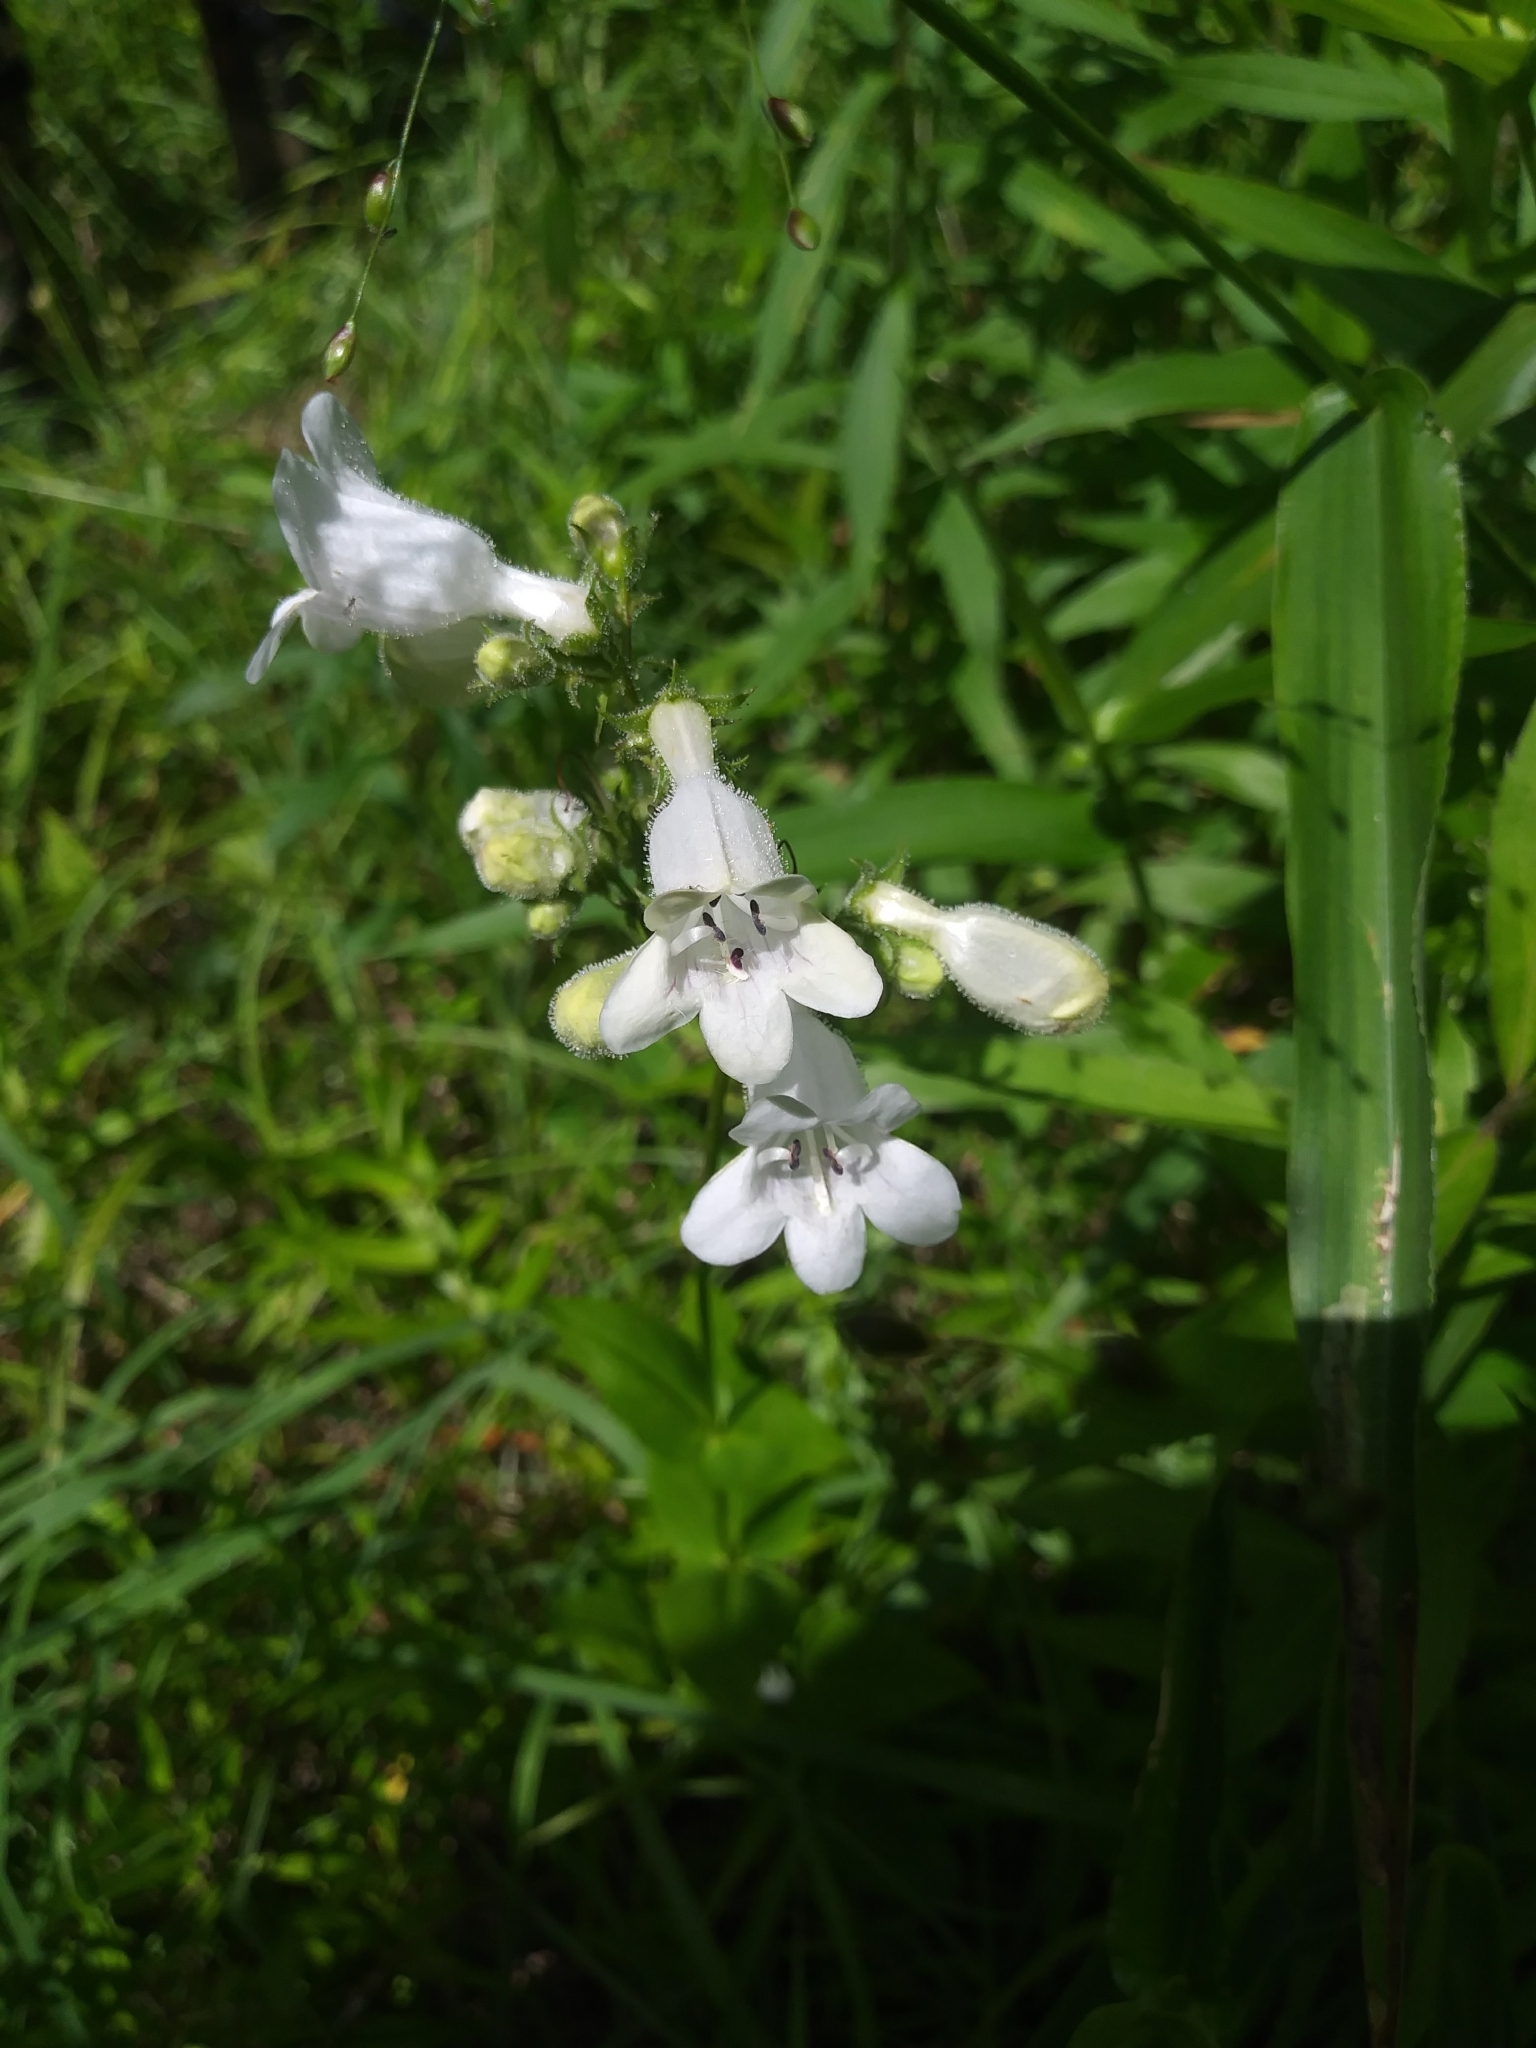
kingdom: Plantae
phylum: Tracheophyta
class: Magnoliopsida
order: Lamiales
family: Plantaginaceae
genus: Penstemon
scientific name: Penstemon digitalis
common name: Foxglove beardtongue
